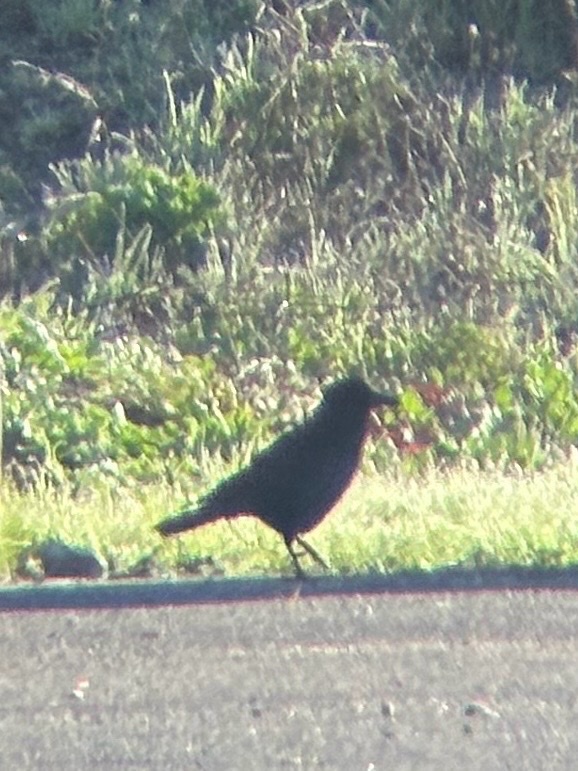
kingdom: Animalia
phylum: Chordata
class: Aves
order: Passeriformes
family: Corvidae
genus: Corvus
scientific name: Corvus brachyrhynchos
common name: American crow
